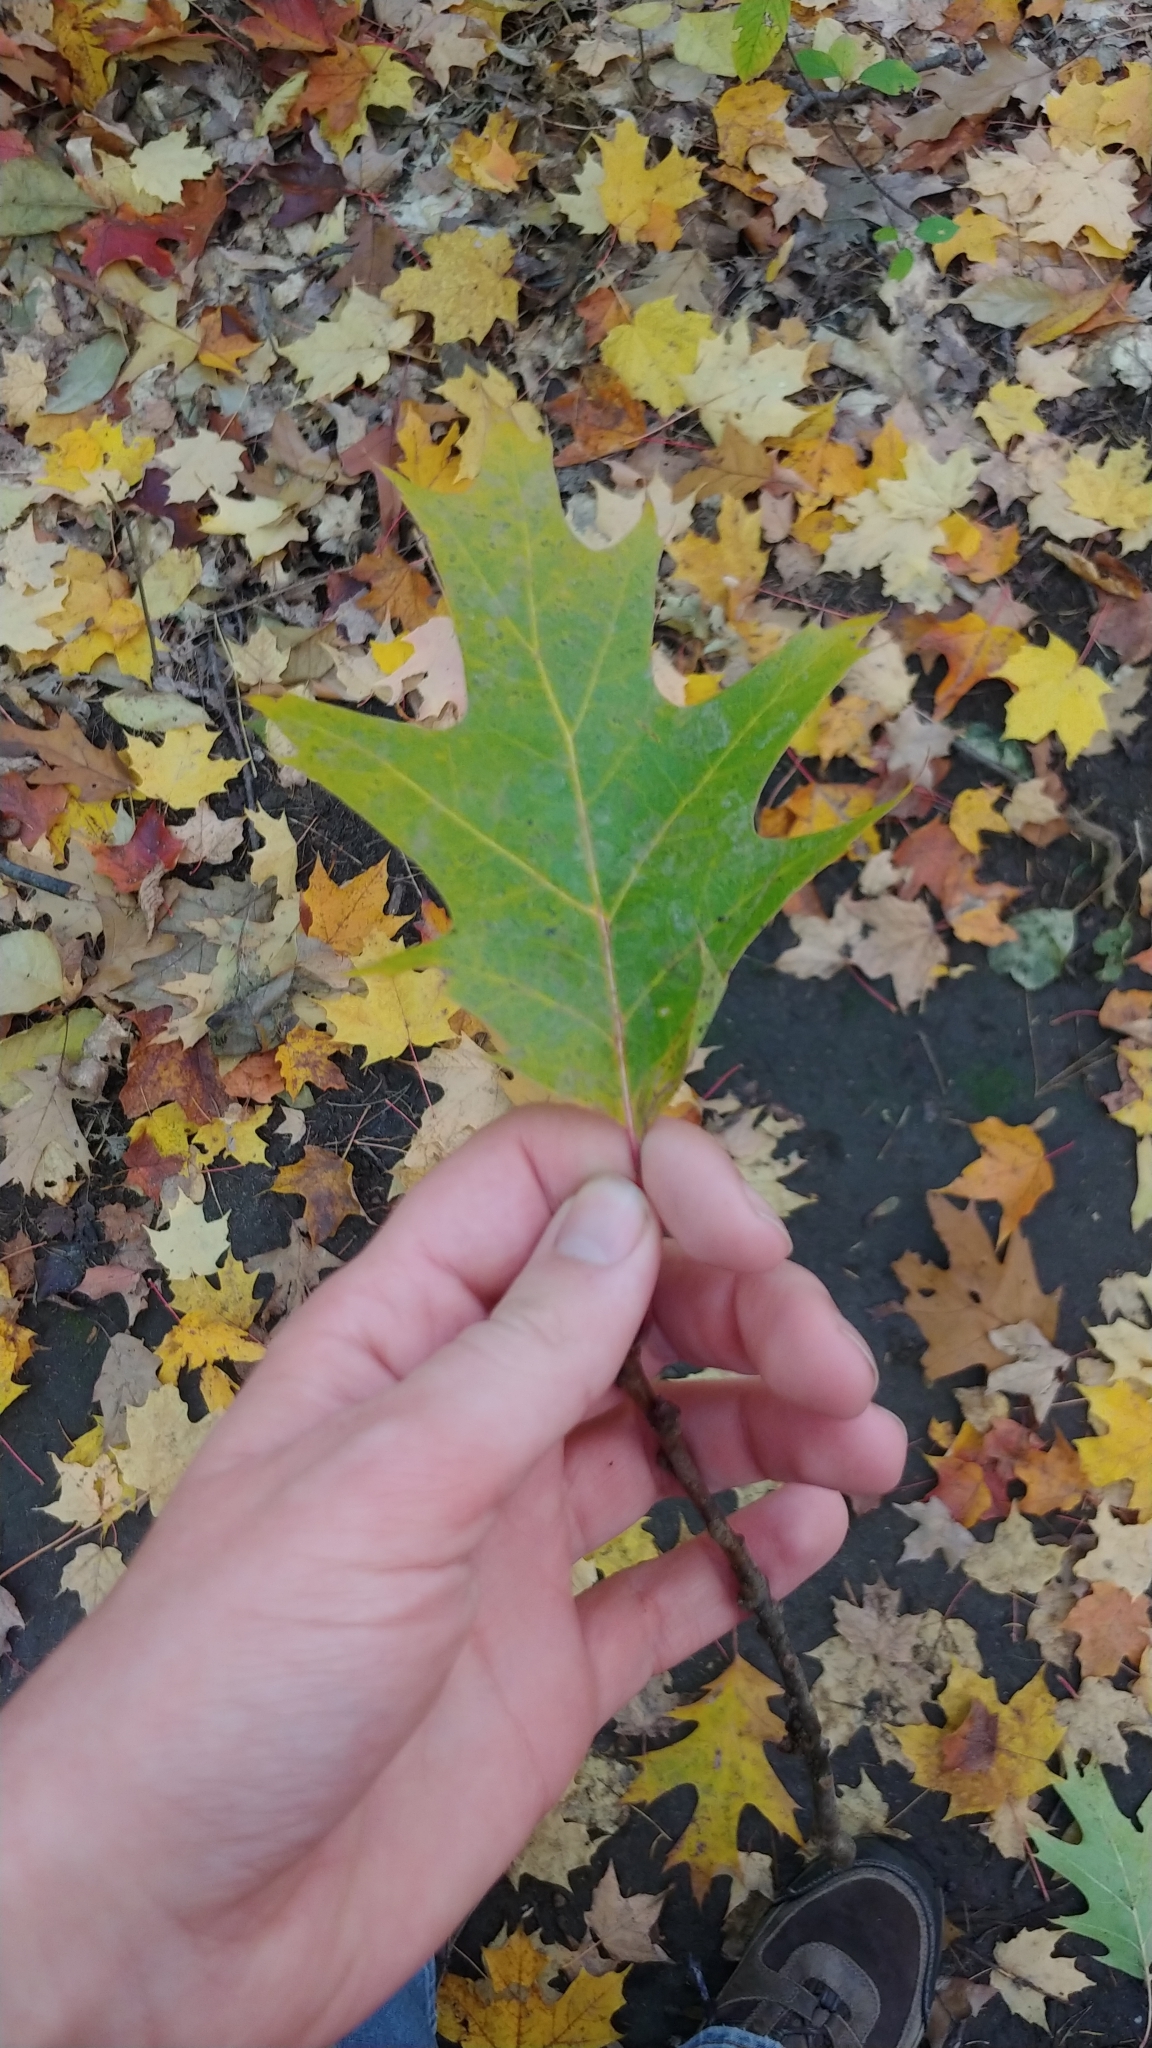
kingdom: Plantae
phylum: Tracheophyta
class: Magnoliopsida
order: Fagales
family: Fagaceae
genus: Quercus
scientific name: Quercus
